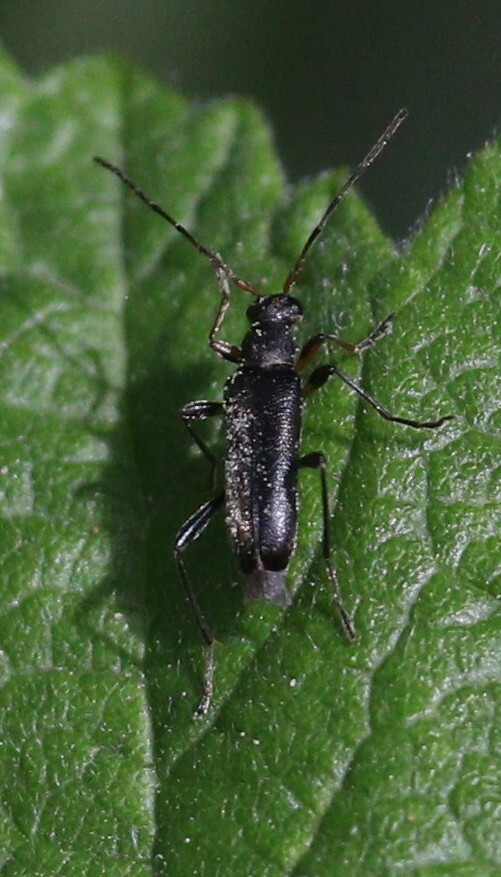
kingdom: Animalia
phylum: Arthropoda
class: Insecta
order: Coleoptera
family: Cerambycidae
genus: Grammoptera
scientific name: Grammoptera ruficornis
